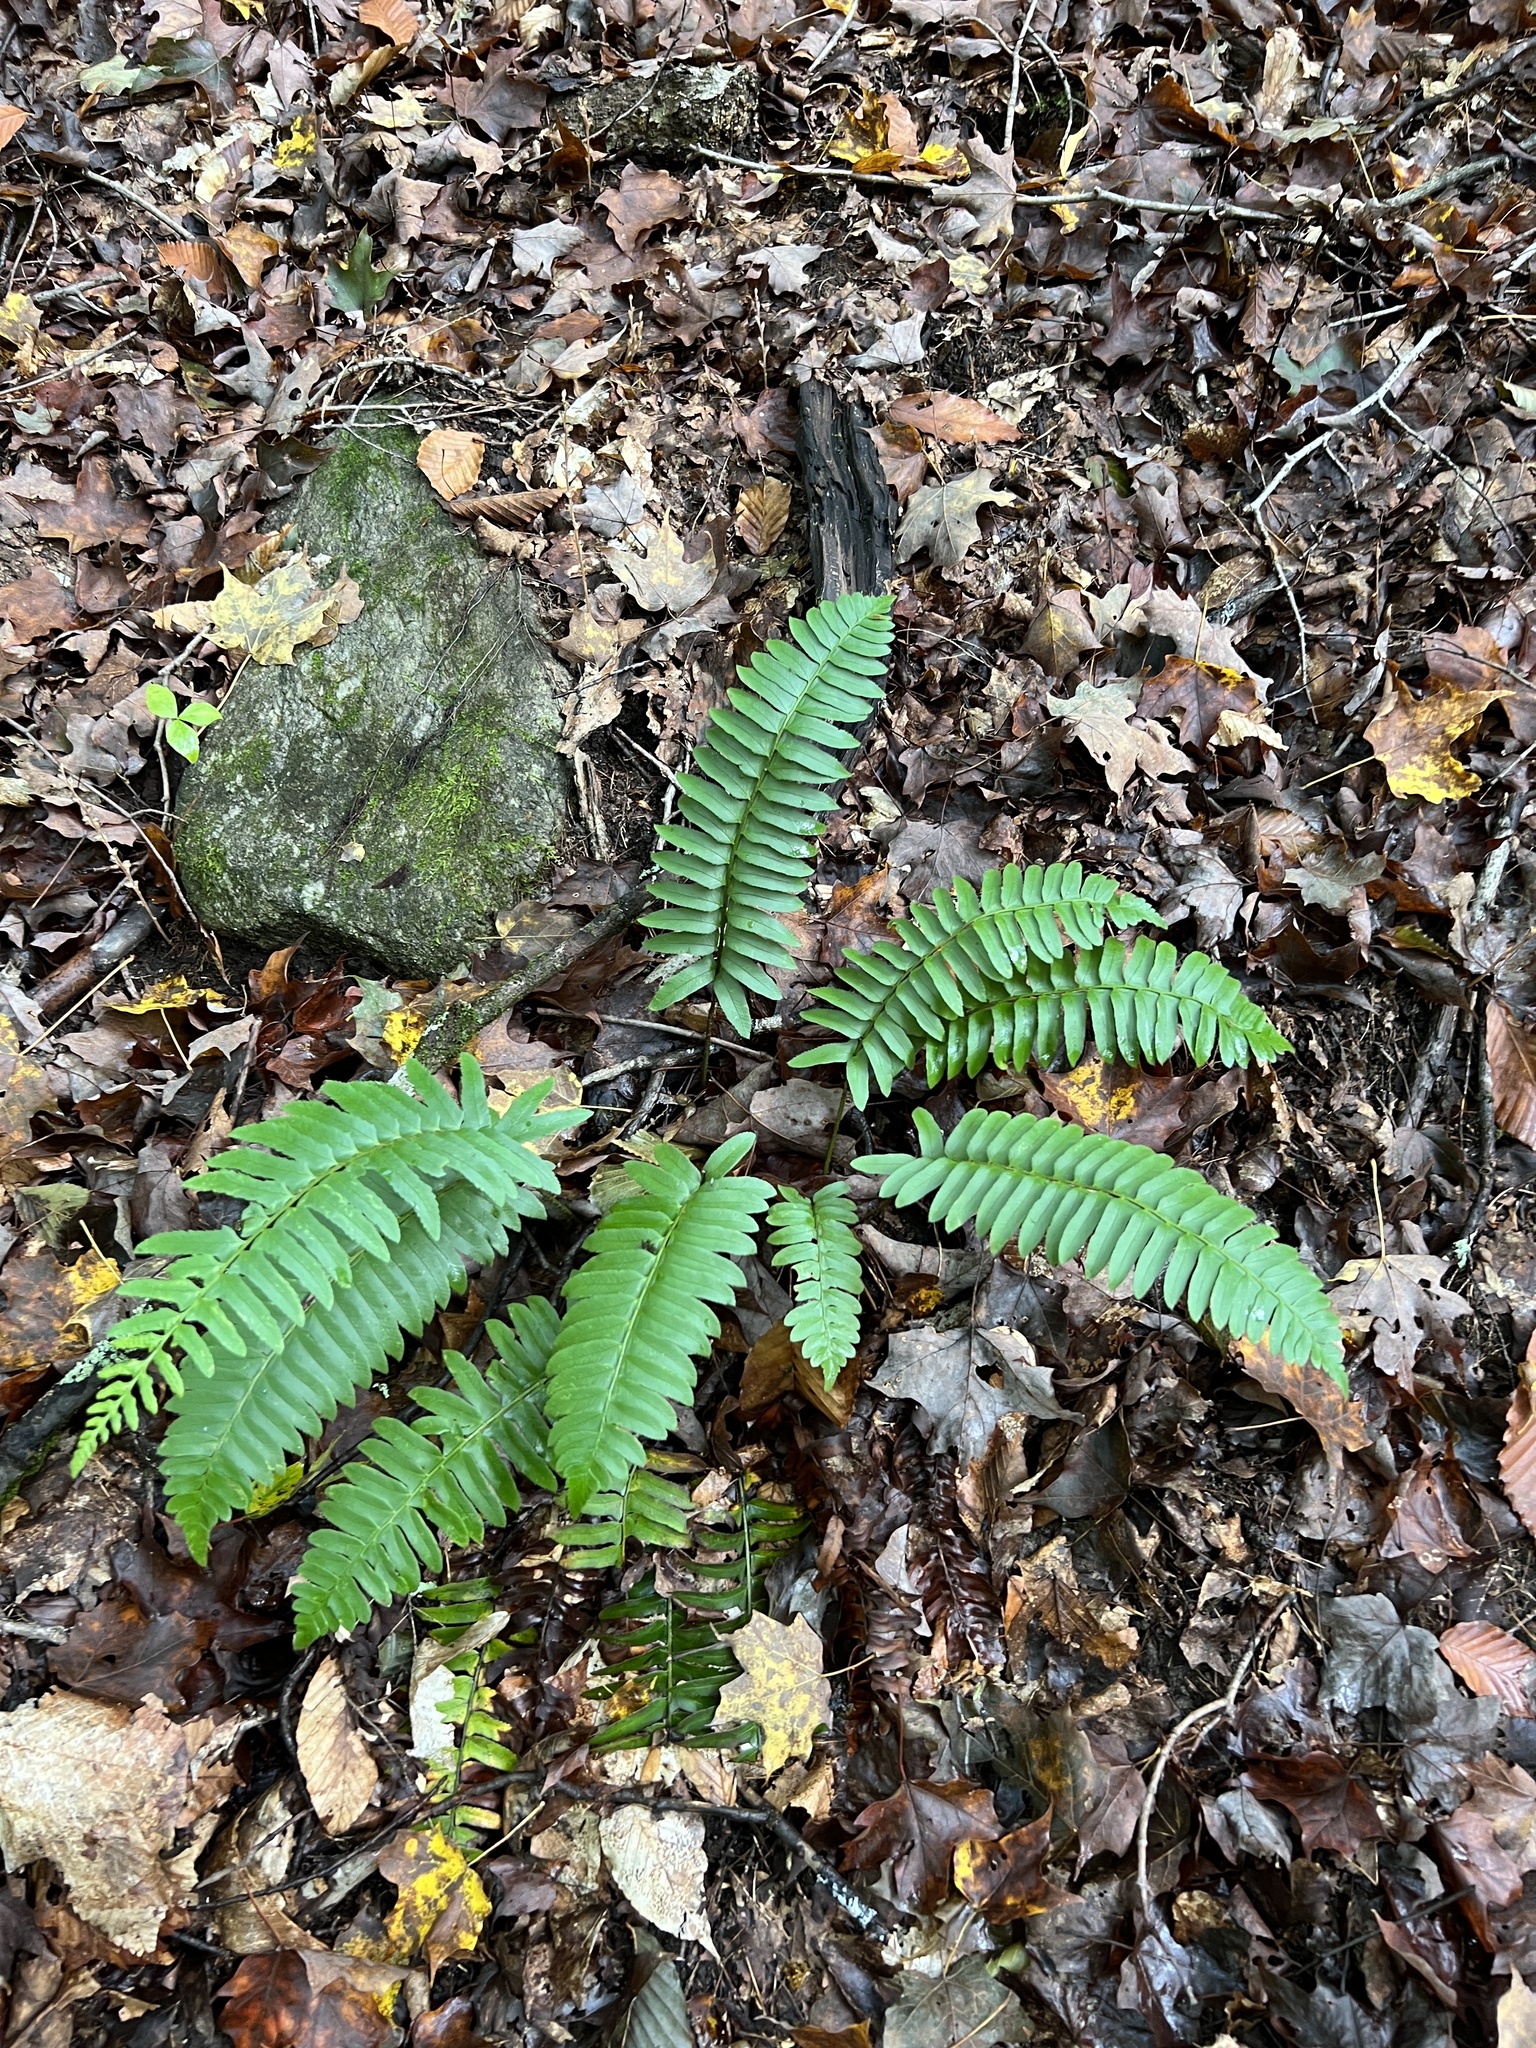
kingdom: Plantae
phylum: Tracheophyta
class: Polypodiopsida
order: Polypodiales
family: Dryopteridaceae
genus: Polystichum
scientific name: Polystichum acrostichoides
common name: Christmas fern
